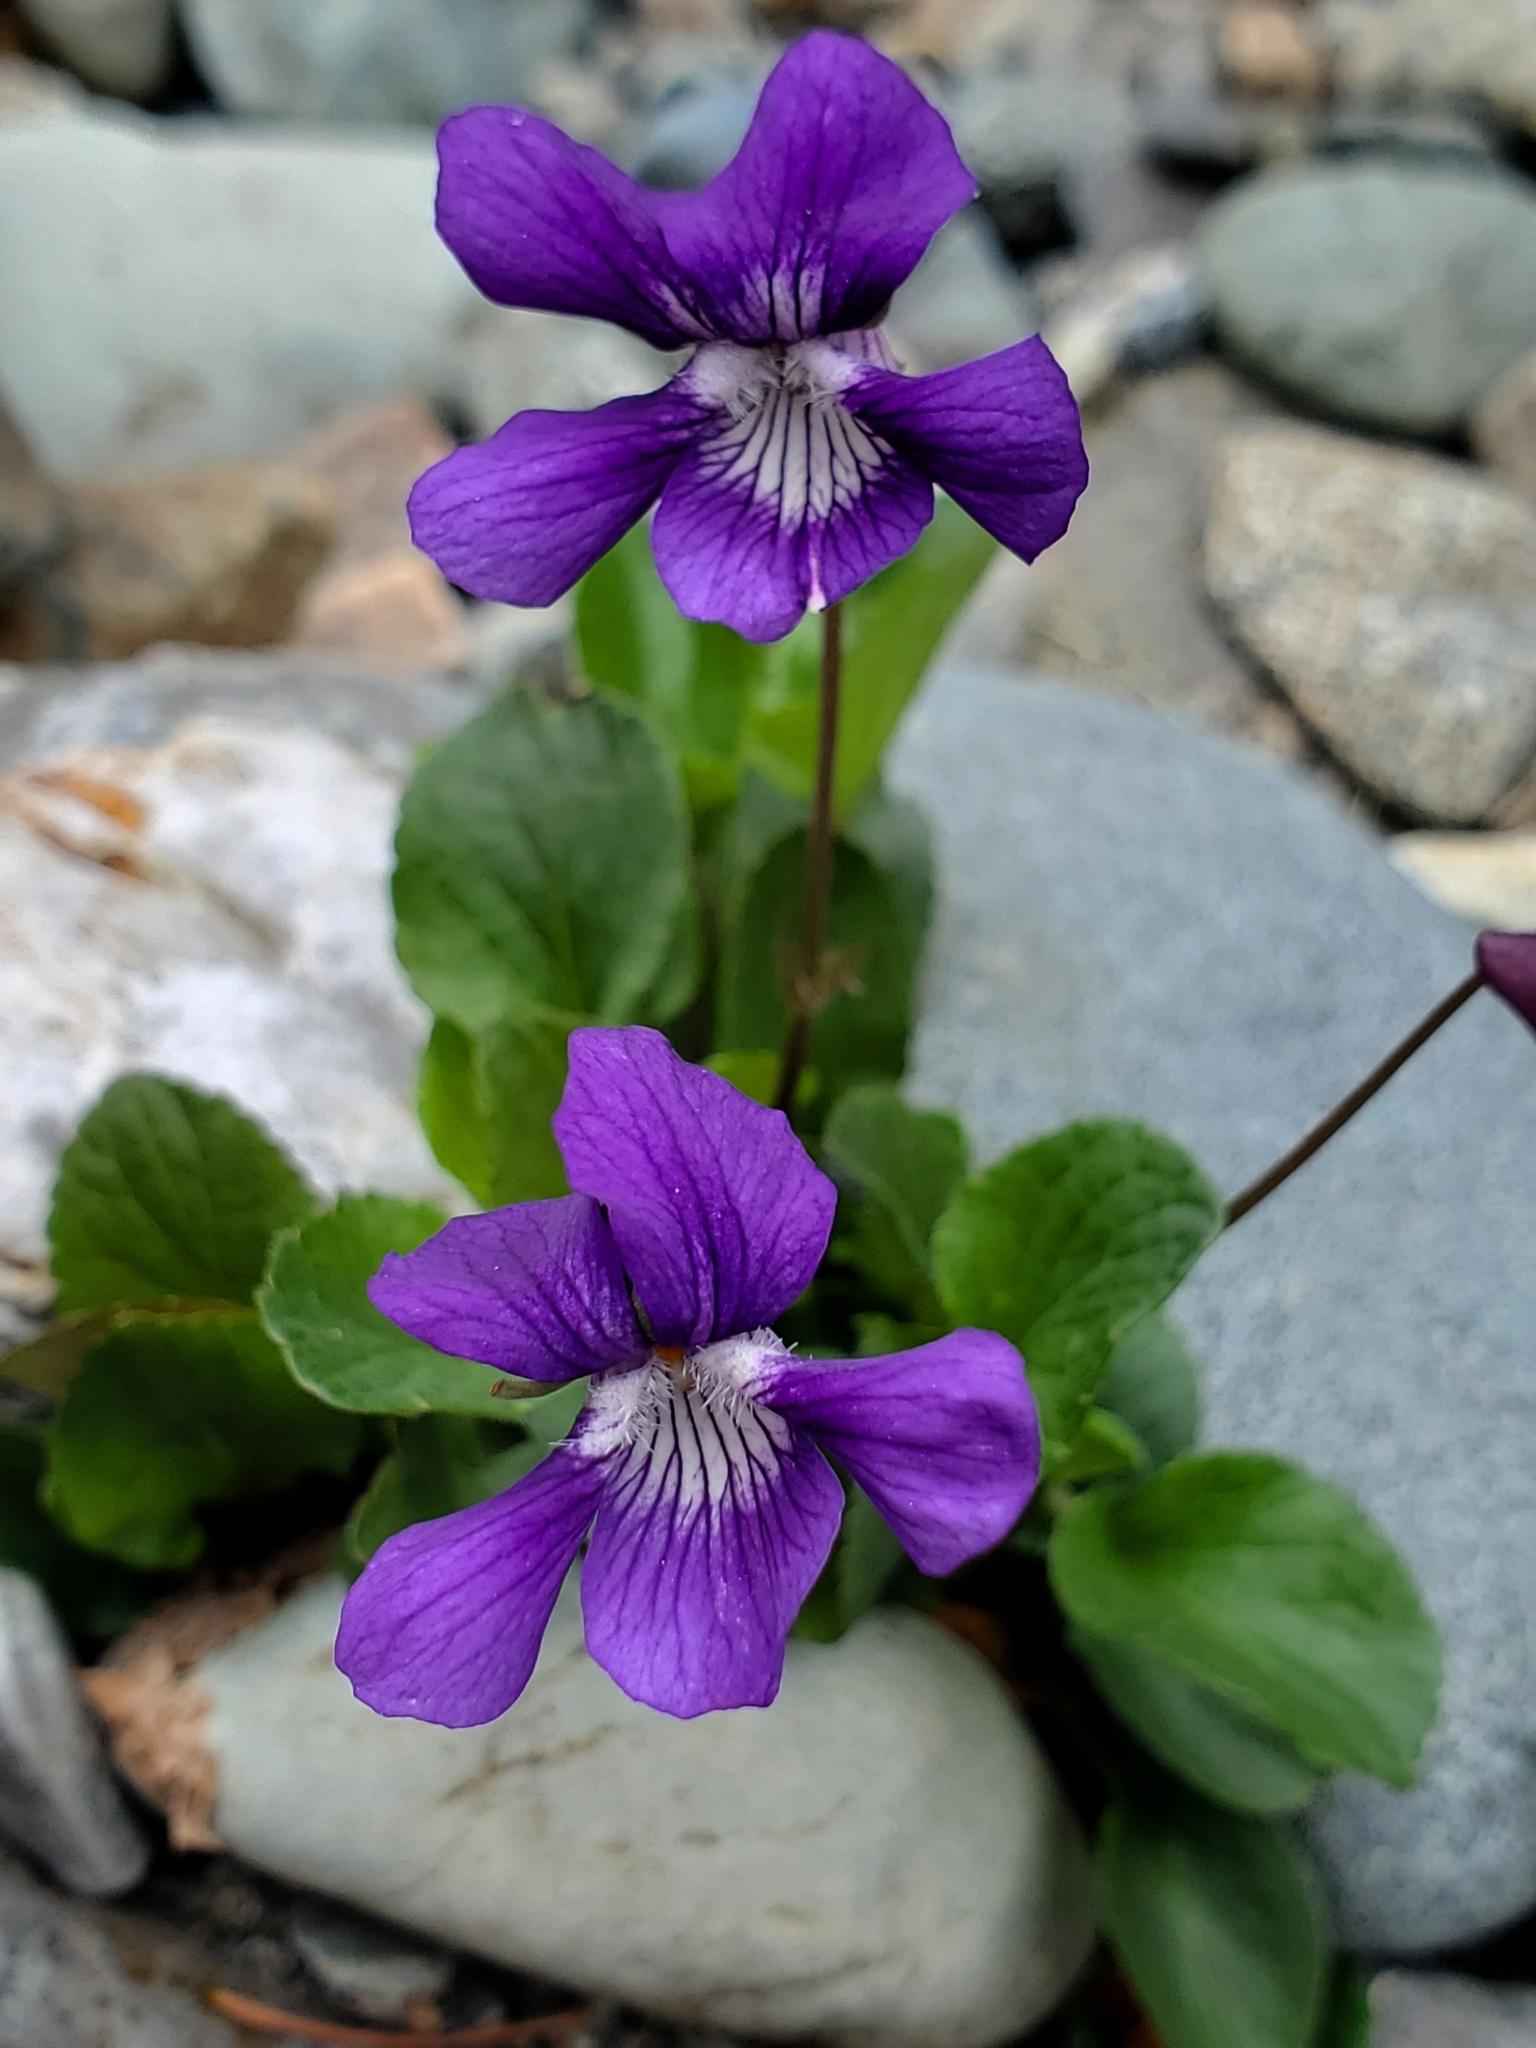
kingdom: Plantae
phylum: Tracheophyta
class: Magnoliopsida
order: Malpighiales
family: Violaceae
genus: Viola
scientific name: Viola adunca
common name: Sand violet
